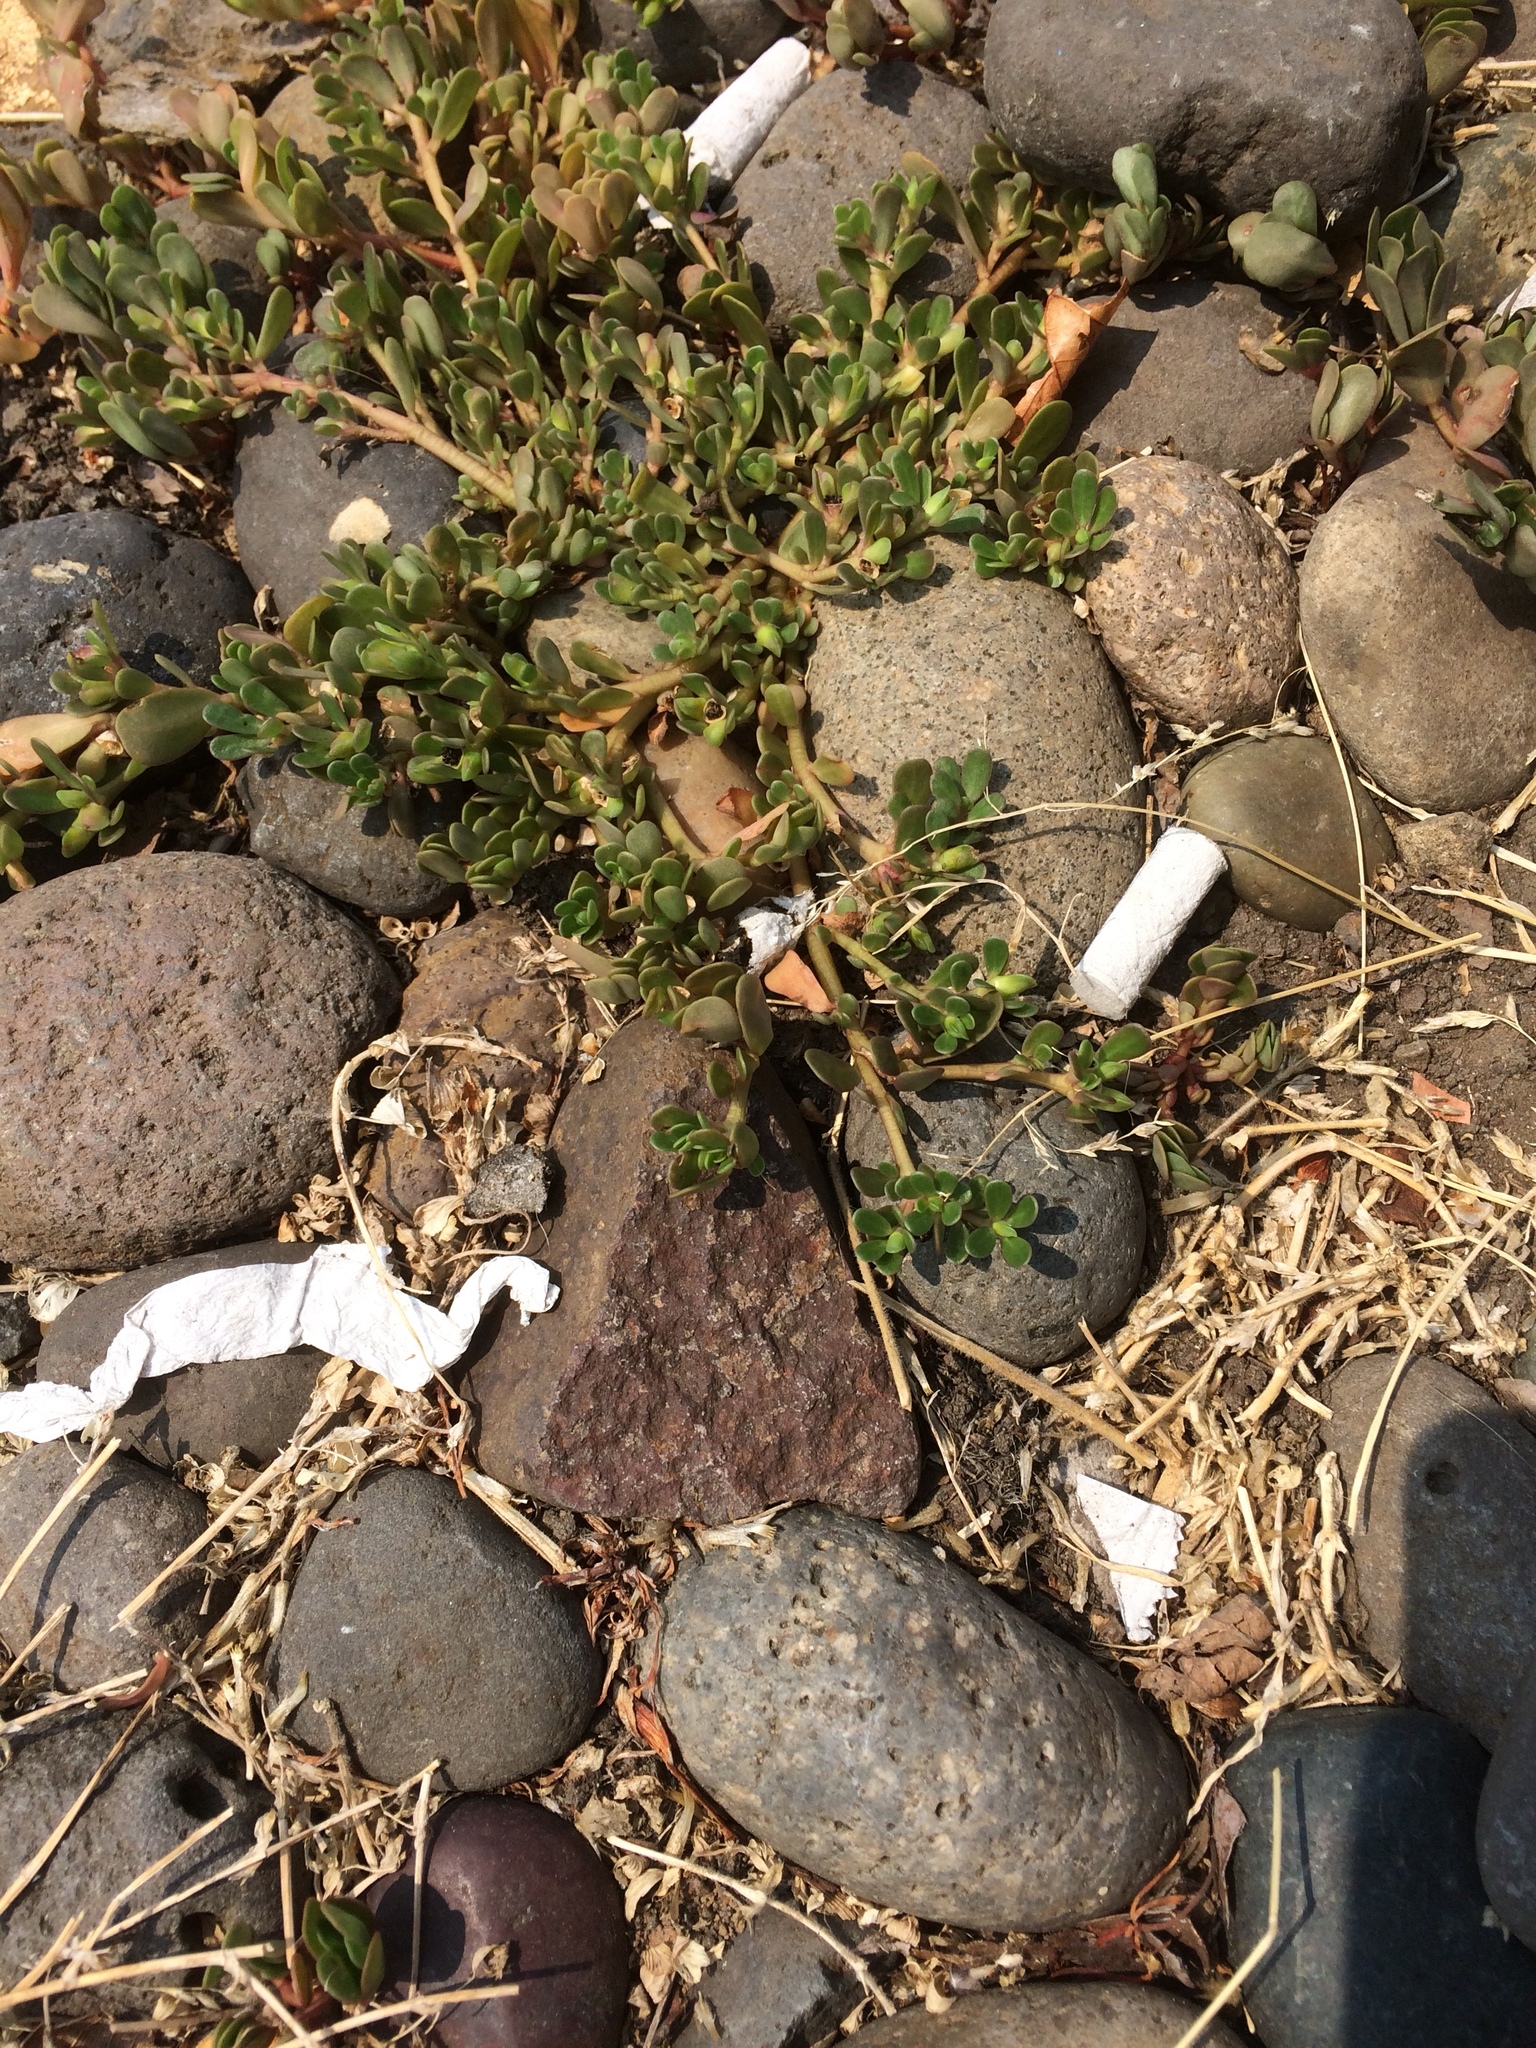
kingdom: Plantae
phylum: Tracheophyta
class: Magnoliopsida
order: Caryophyllales
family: Portulacaceae
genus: Portulaca
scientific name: Portulaca oleracea
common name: Common purslane
